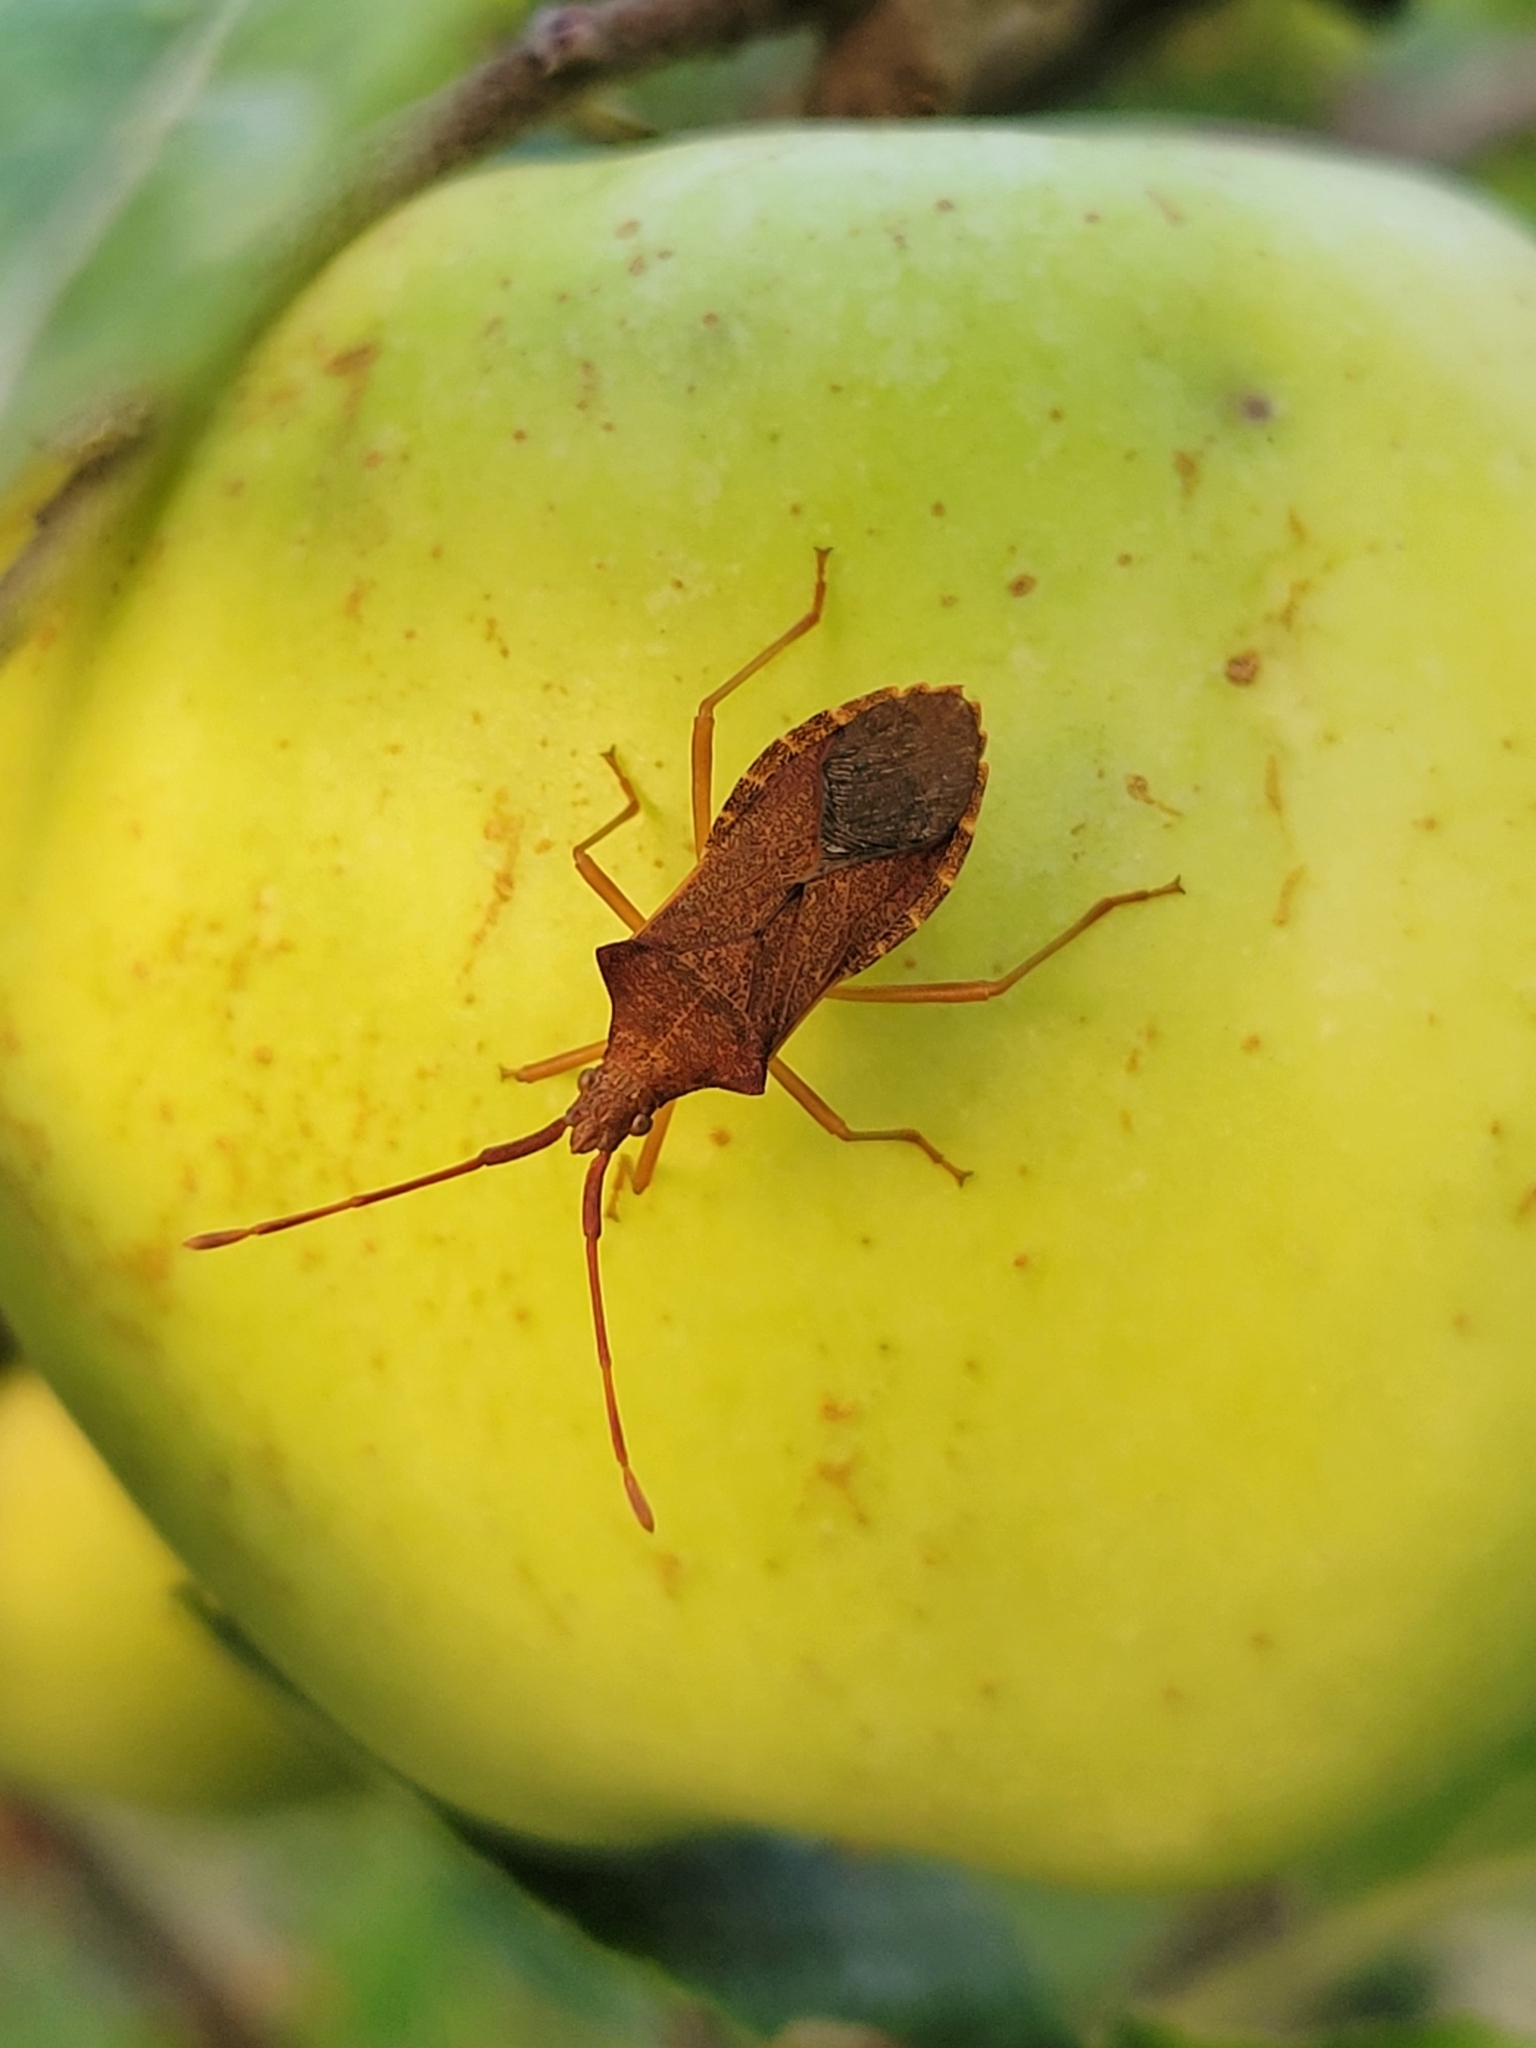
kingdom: Animalia
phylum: Arthropoda
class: Insecta
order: Hemiptera
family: Coreidae
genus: Gonocerus
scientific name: Gonocerus acuteangulatus
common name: Box bug
